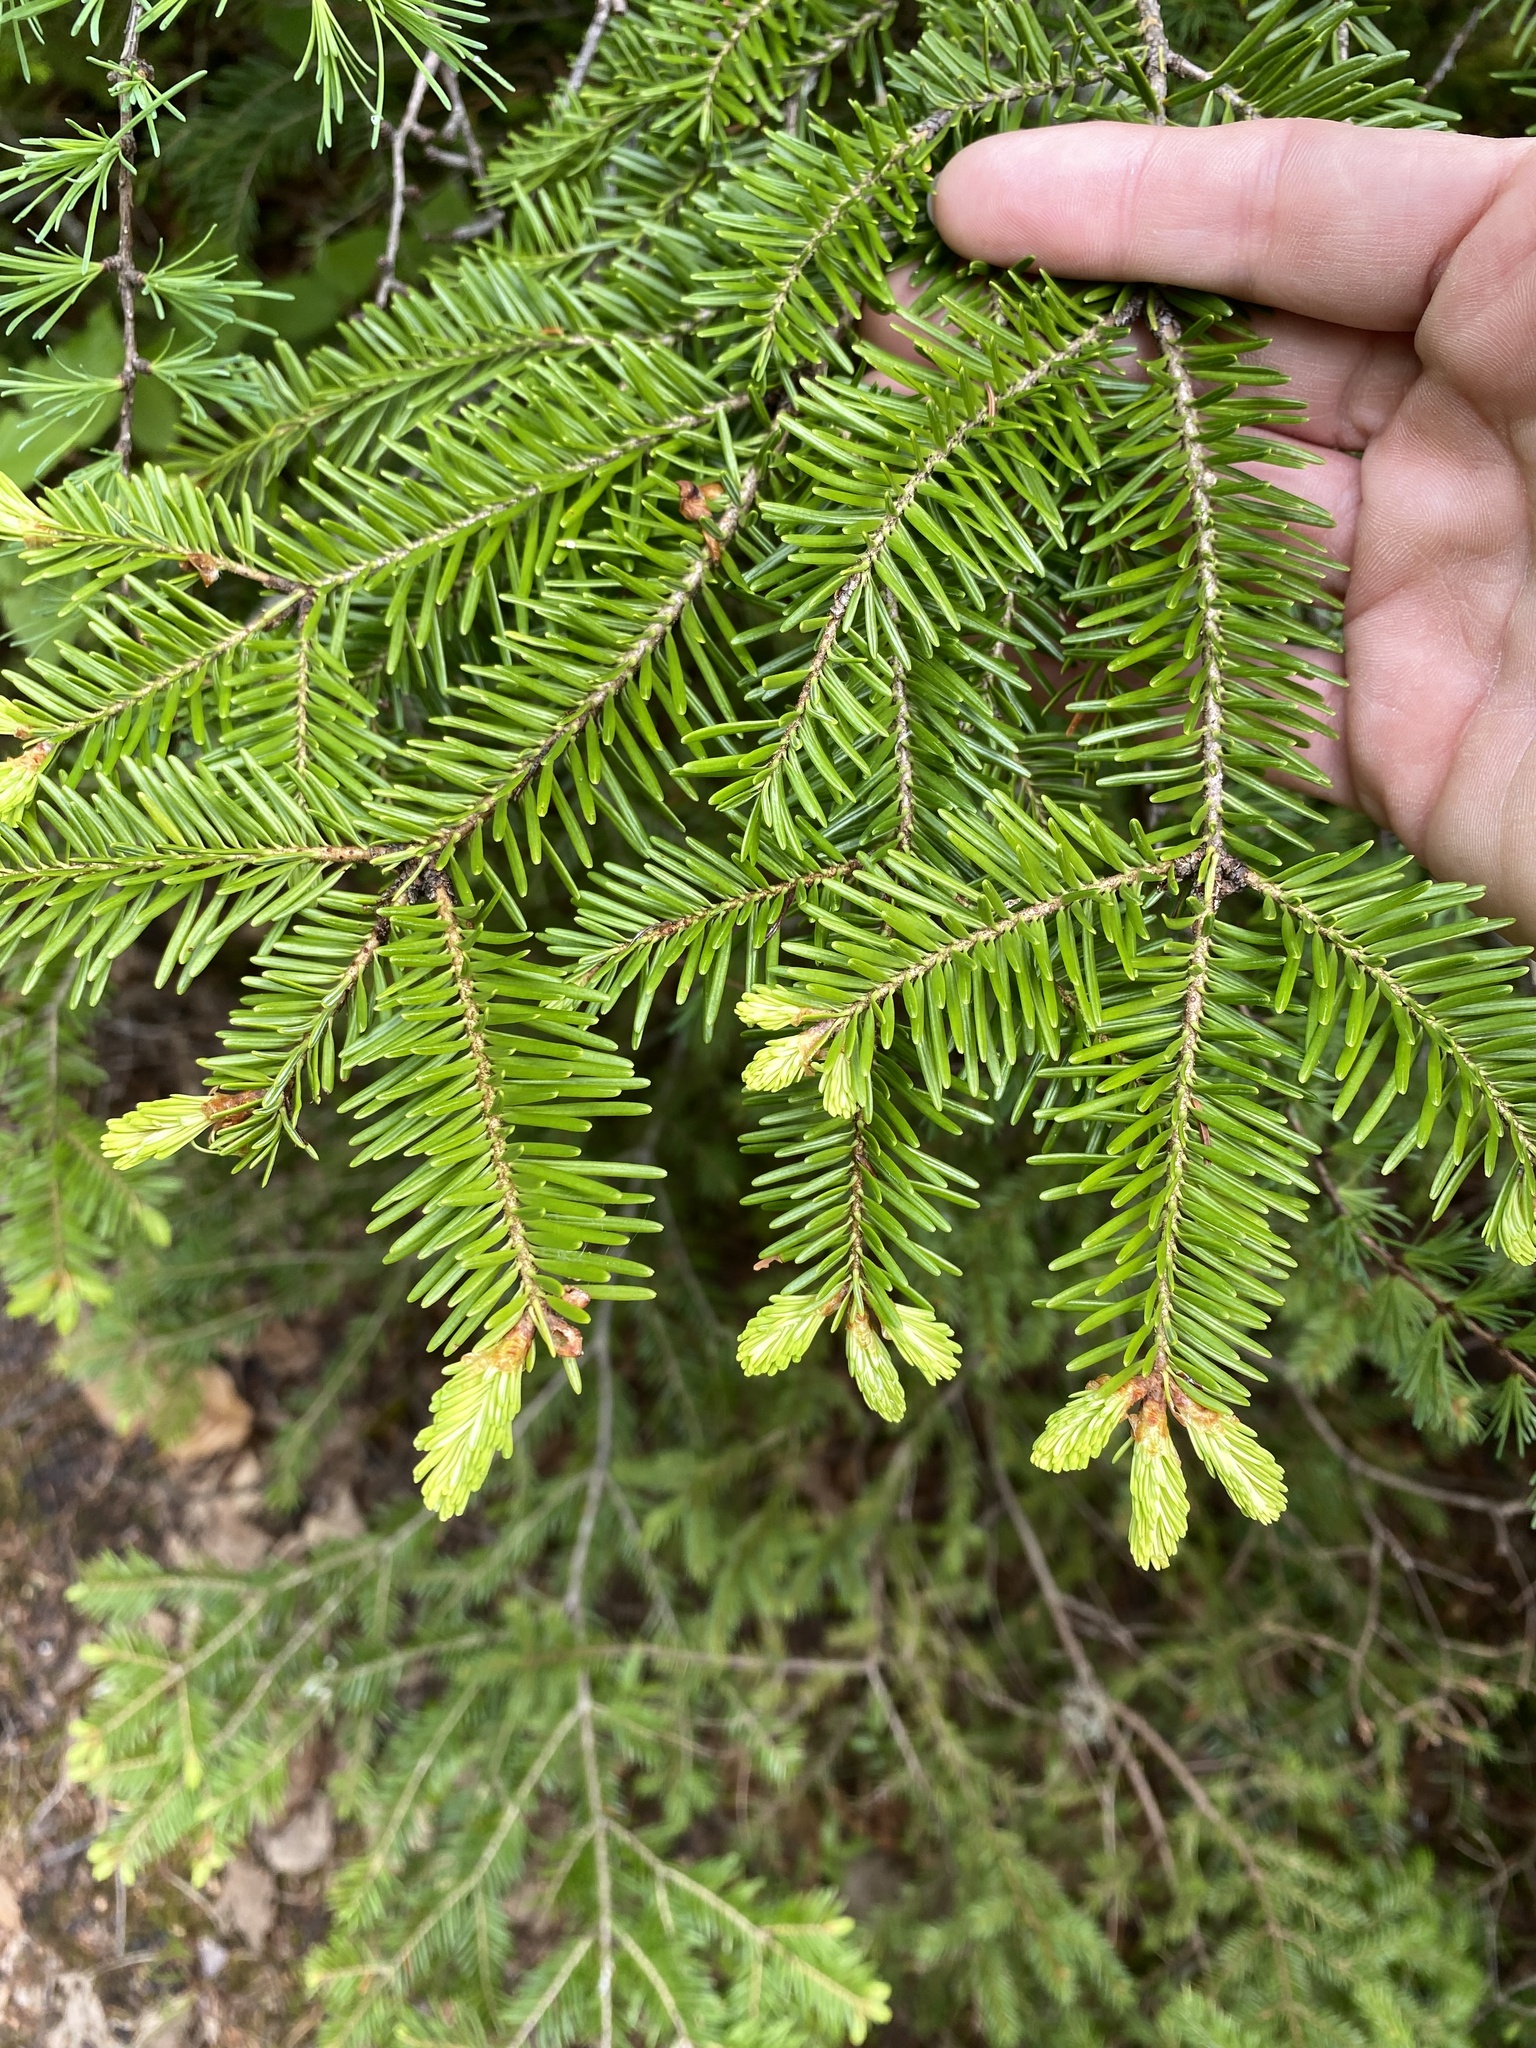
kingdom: Plantae
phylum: Tracheophyta
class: Pinopsida
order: Pinales
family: Pinaceae
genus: Abies
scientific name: Abies balsamea
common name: Balsam fir
